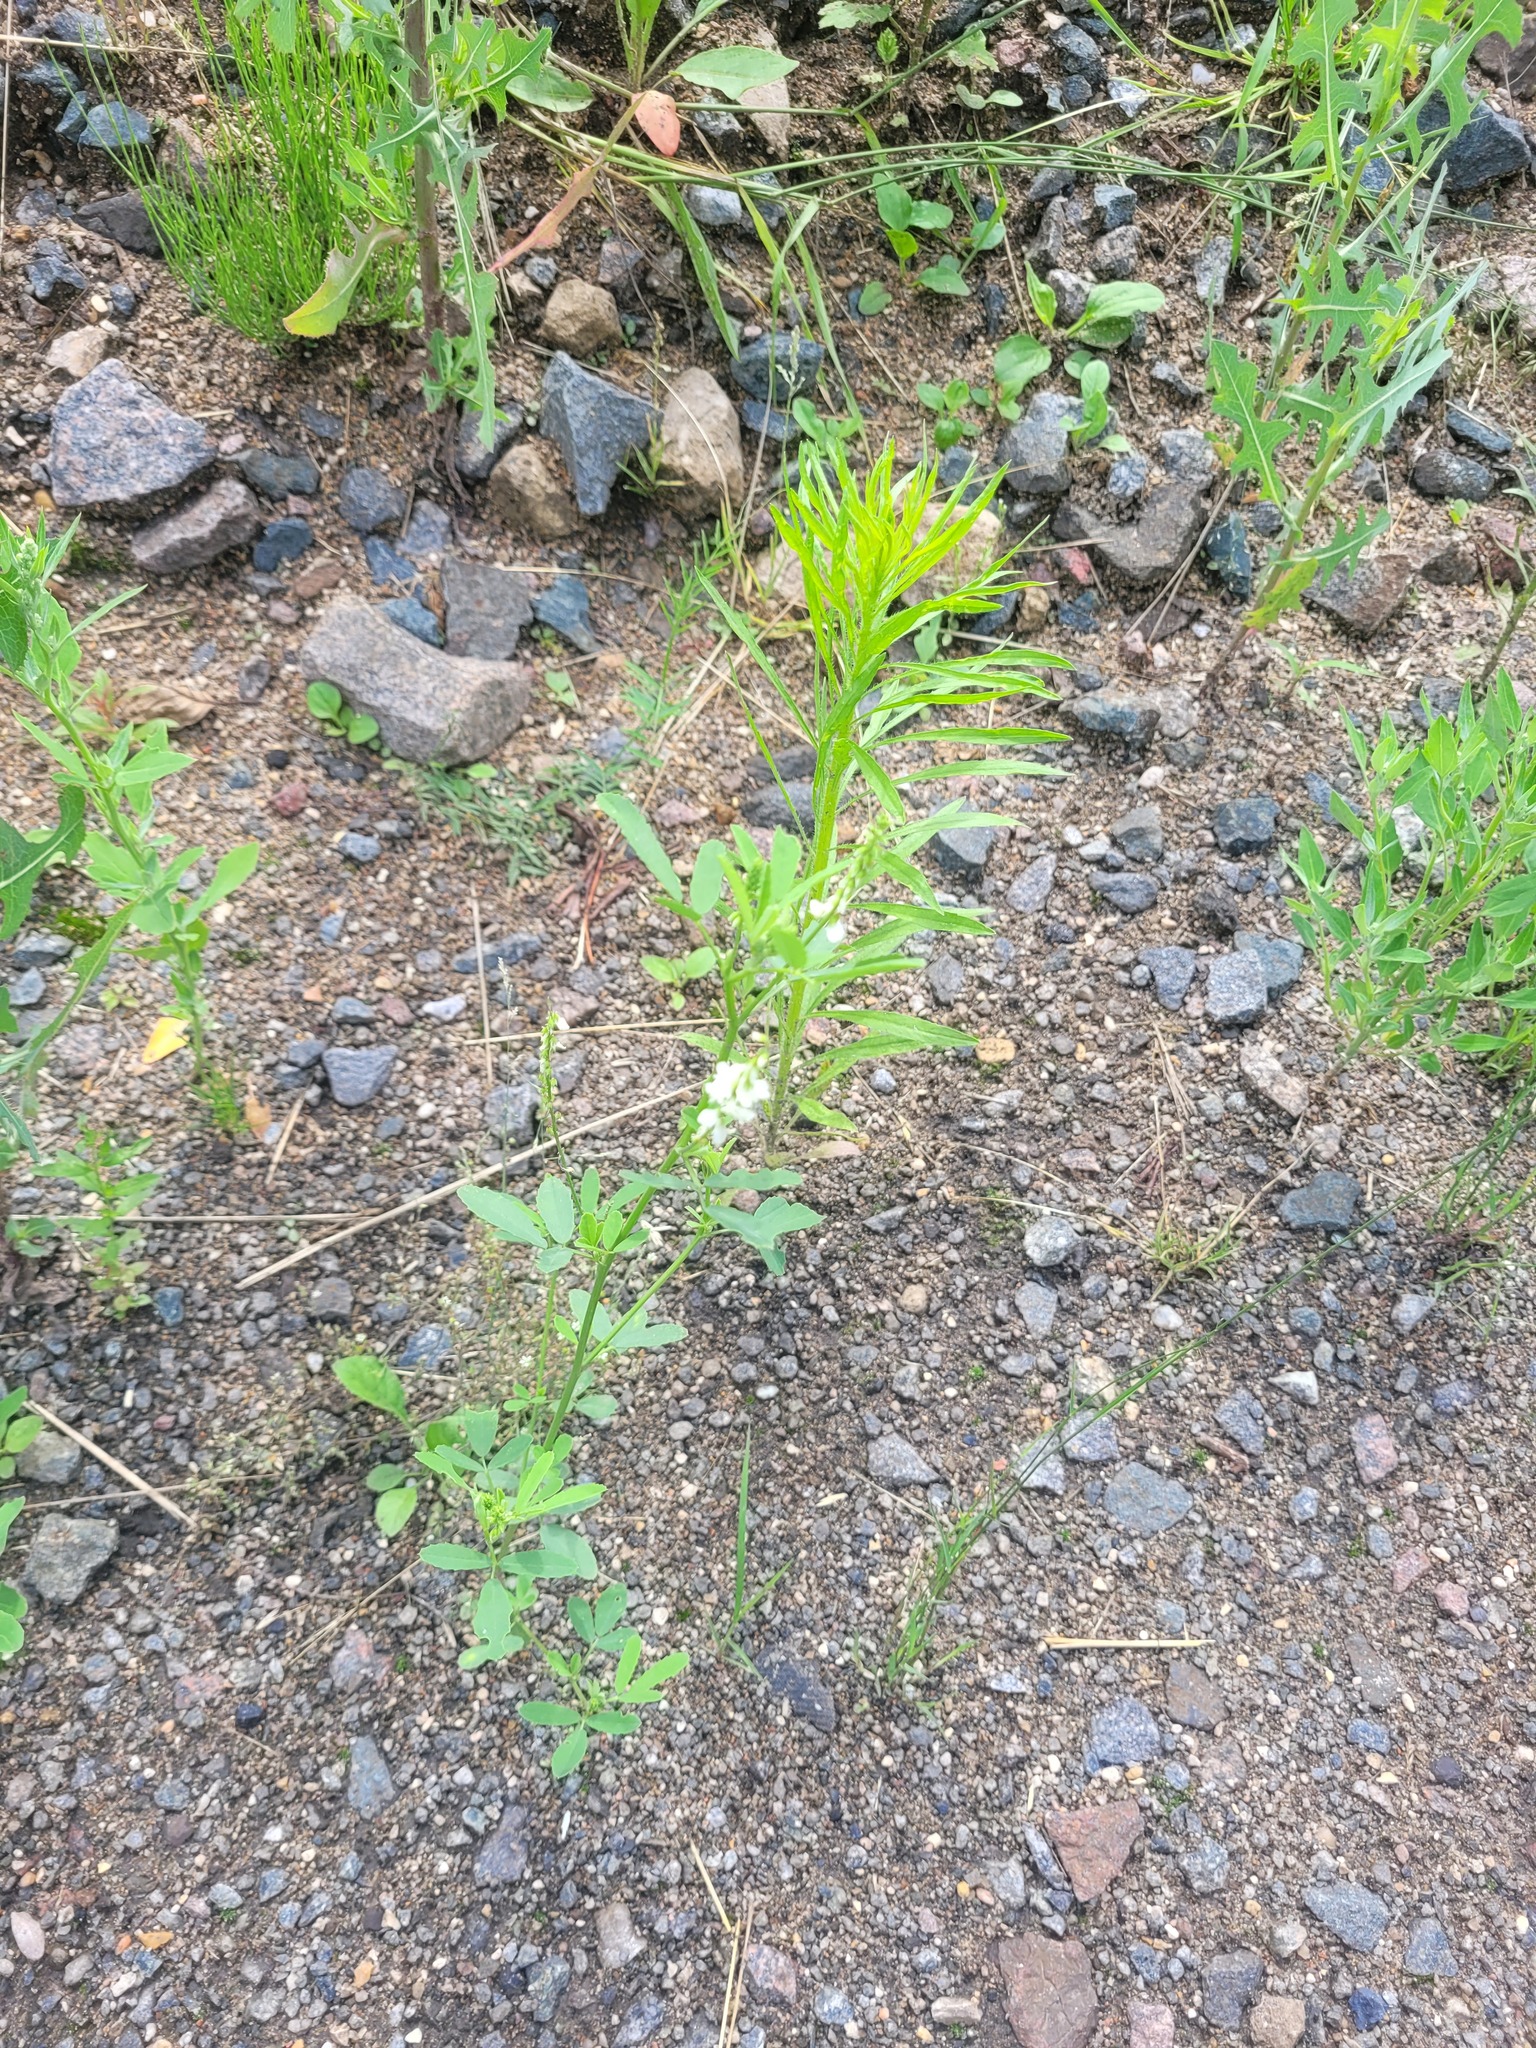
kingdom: Plantae
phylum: Tracheophyta
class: Magnoliopsida
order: Fabales
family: Fabaceae
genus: Melilotus
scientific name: Melilotus albus
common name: White melilot
